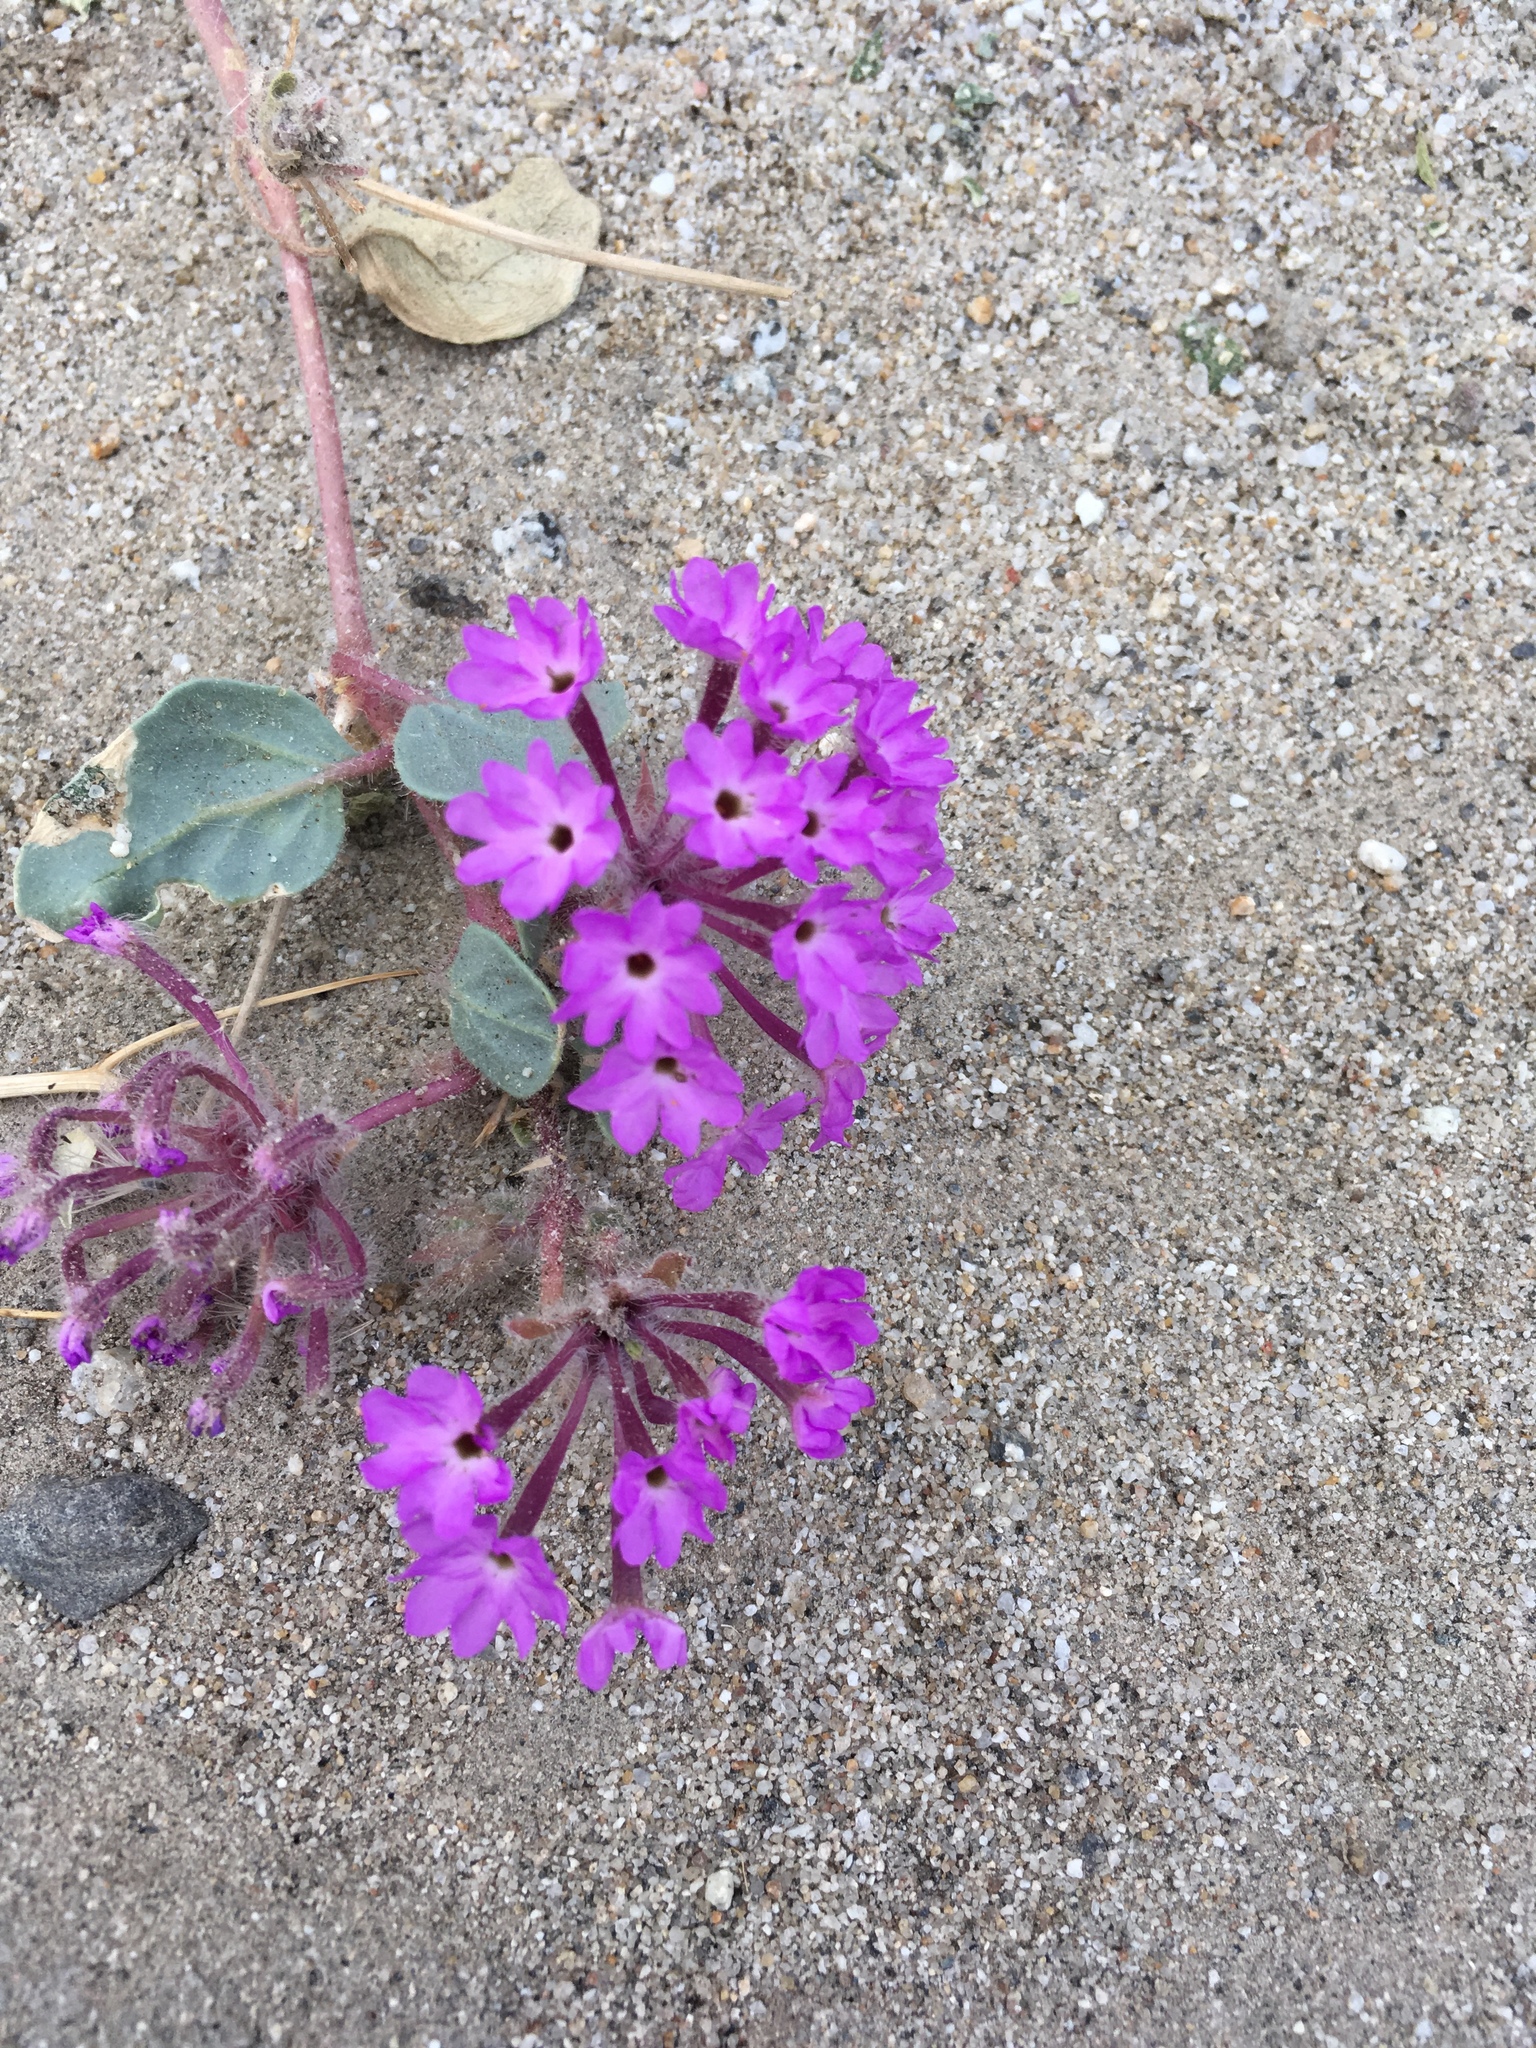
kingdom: Plantae
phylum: Tracheophyta
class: Magnoliopsida
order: Caryophyllales
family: Nyctaginaceae
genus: Abronia
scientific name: Abronia villosa
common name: Desert sand-verbena
